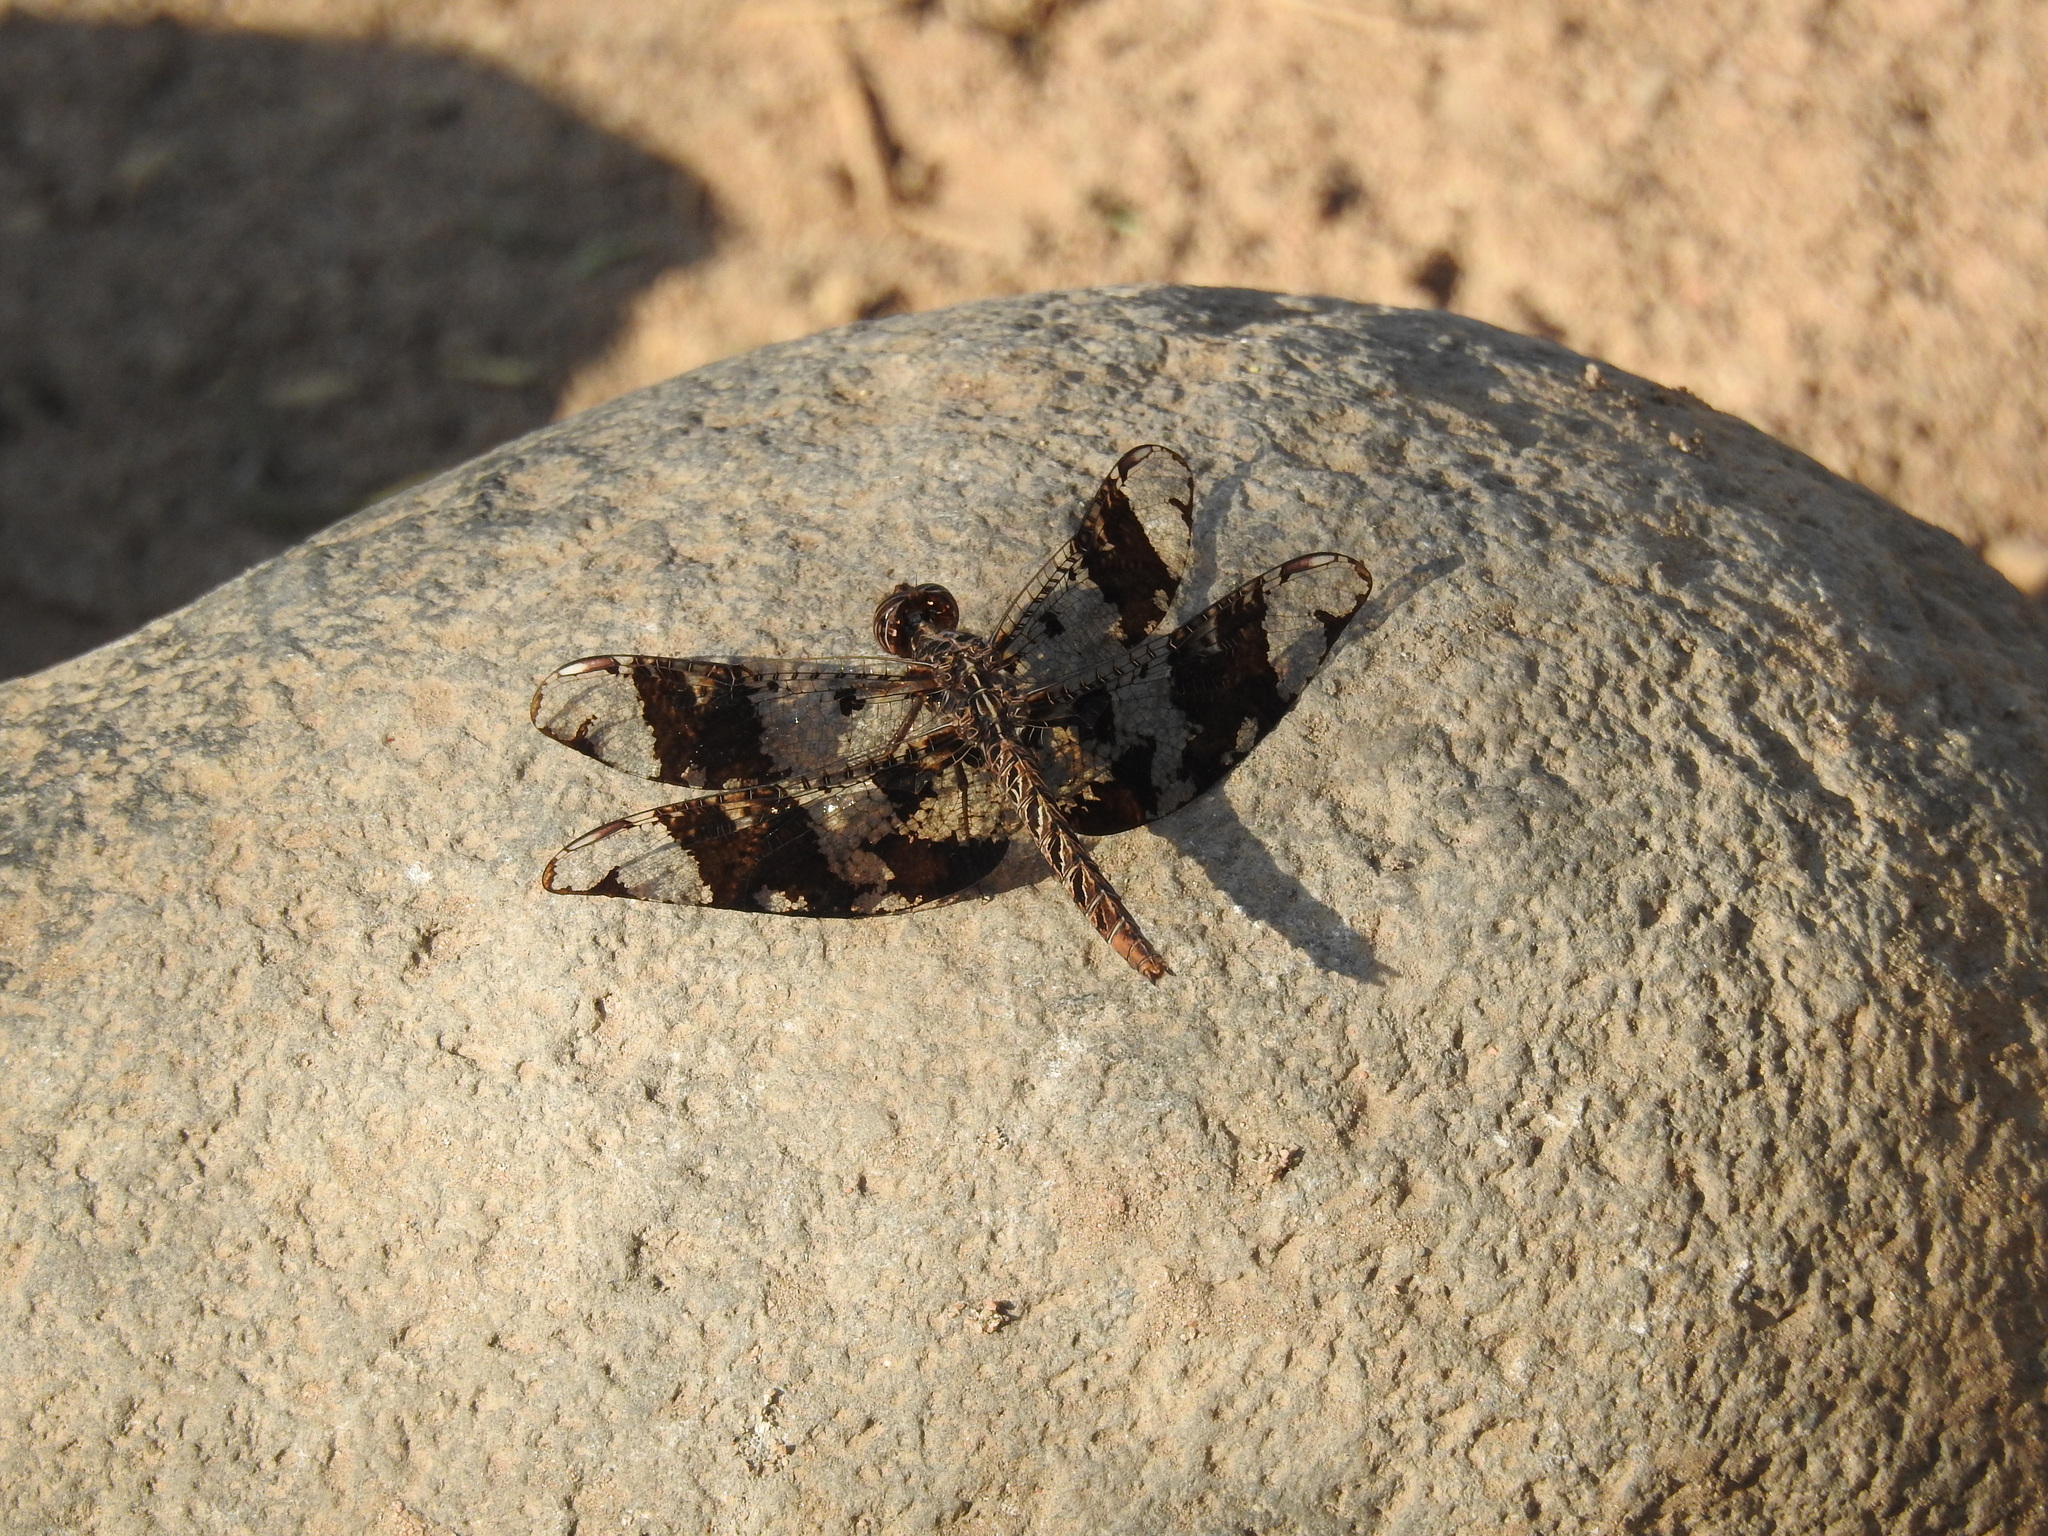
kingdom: Animalia
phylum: Arthropoda
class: Insecta
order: Odonata
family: Libellulidae
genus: Pseudoleon
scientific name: Pseudoleon superbus
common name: Filigree skimmer
